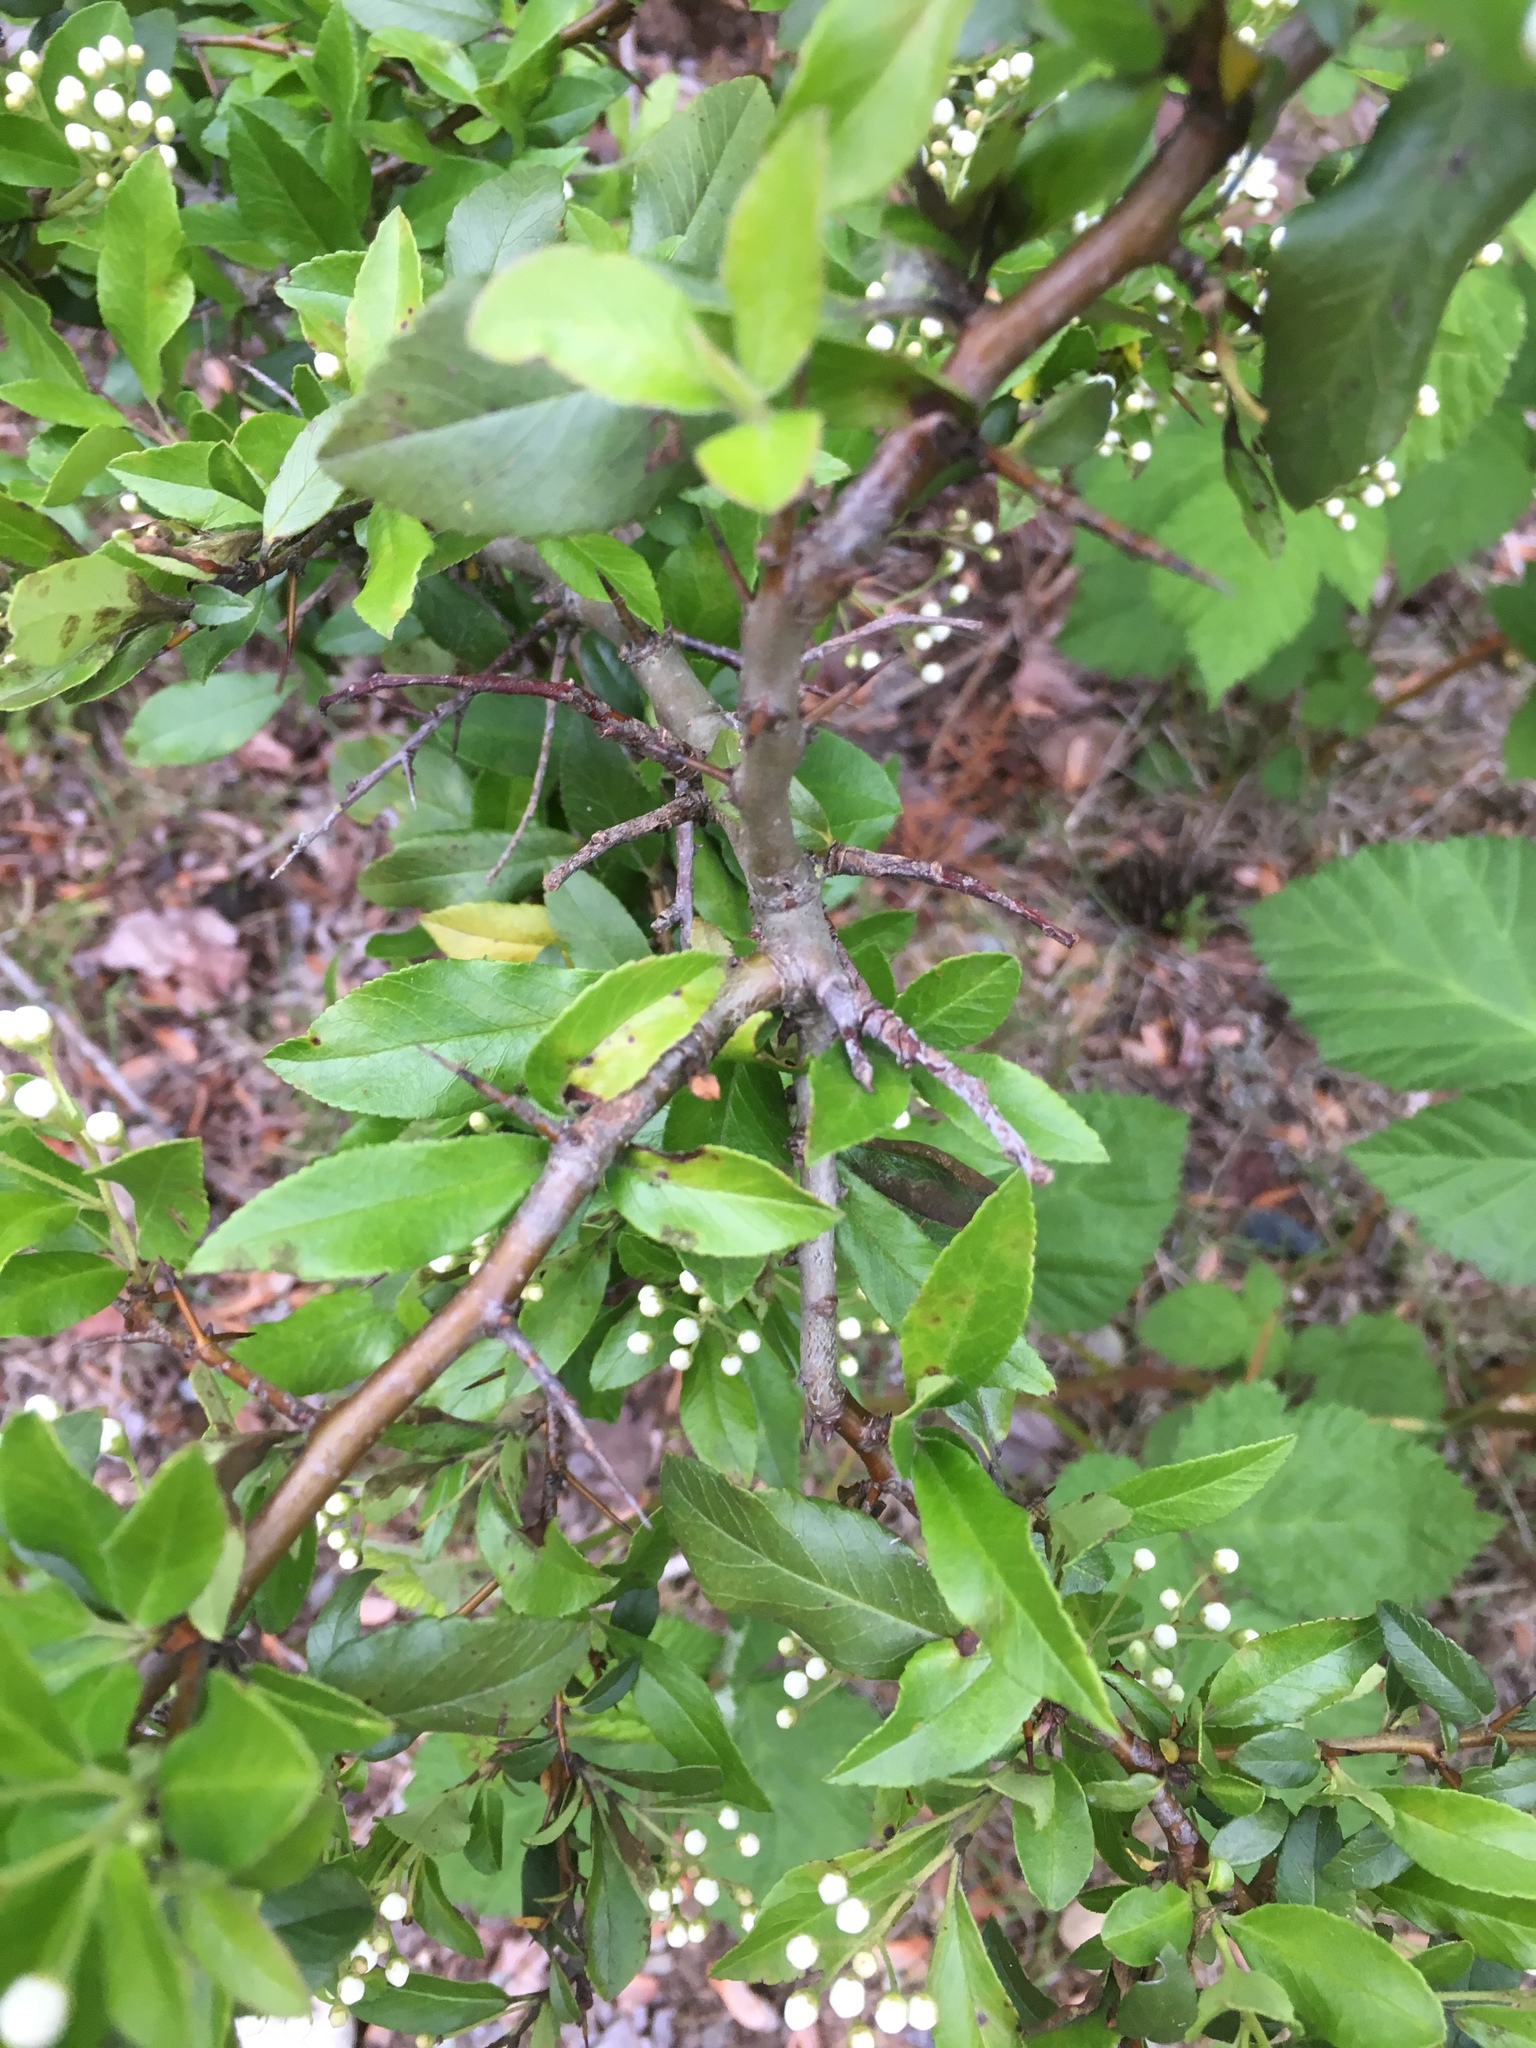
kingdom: Plantae
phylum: Tracheophyta
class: Magnoliopsida
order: Rosales
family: Rosaceae
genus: Pyracantha
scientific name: Pyracantha coccinea
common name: Firethorn
